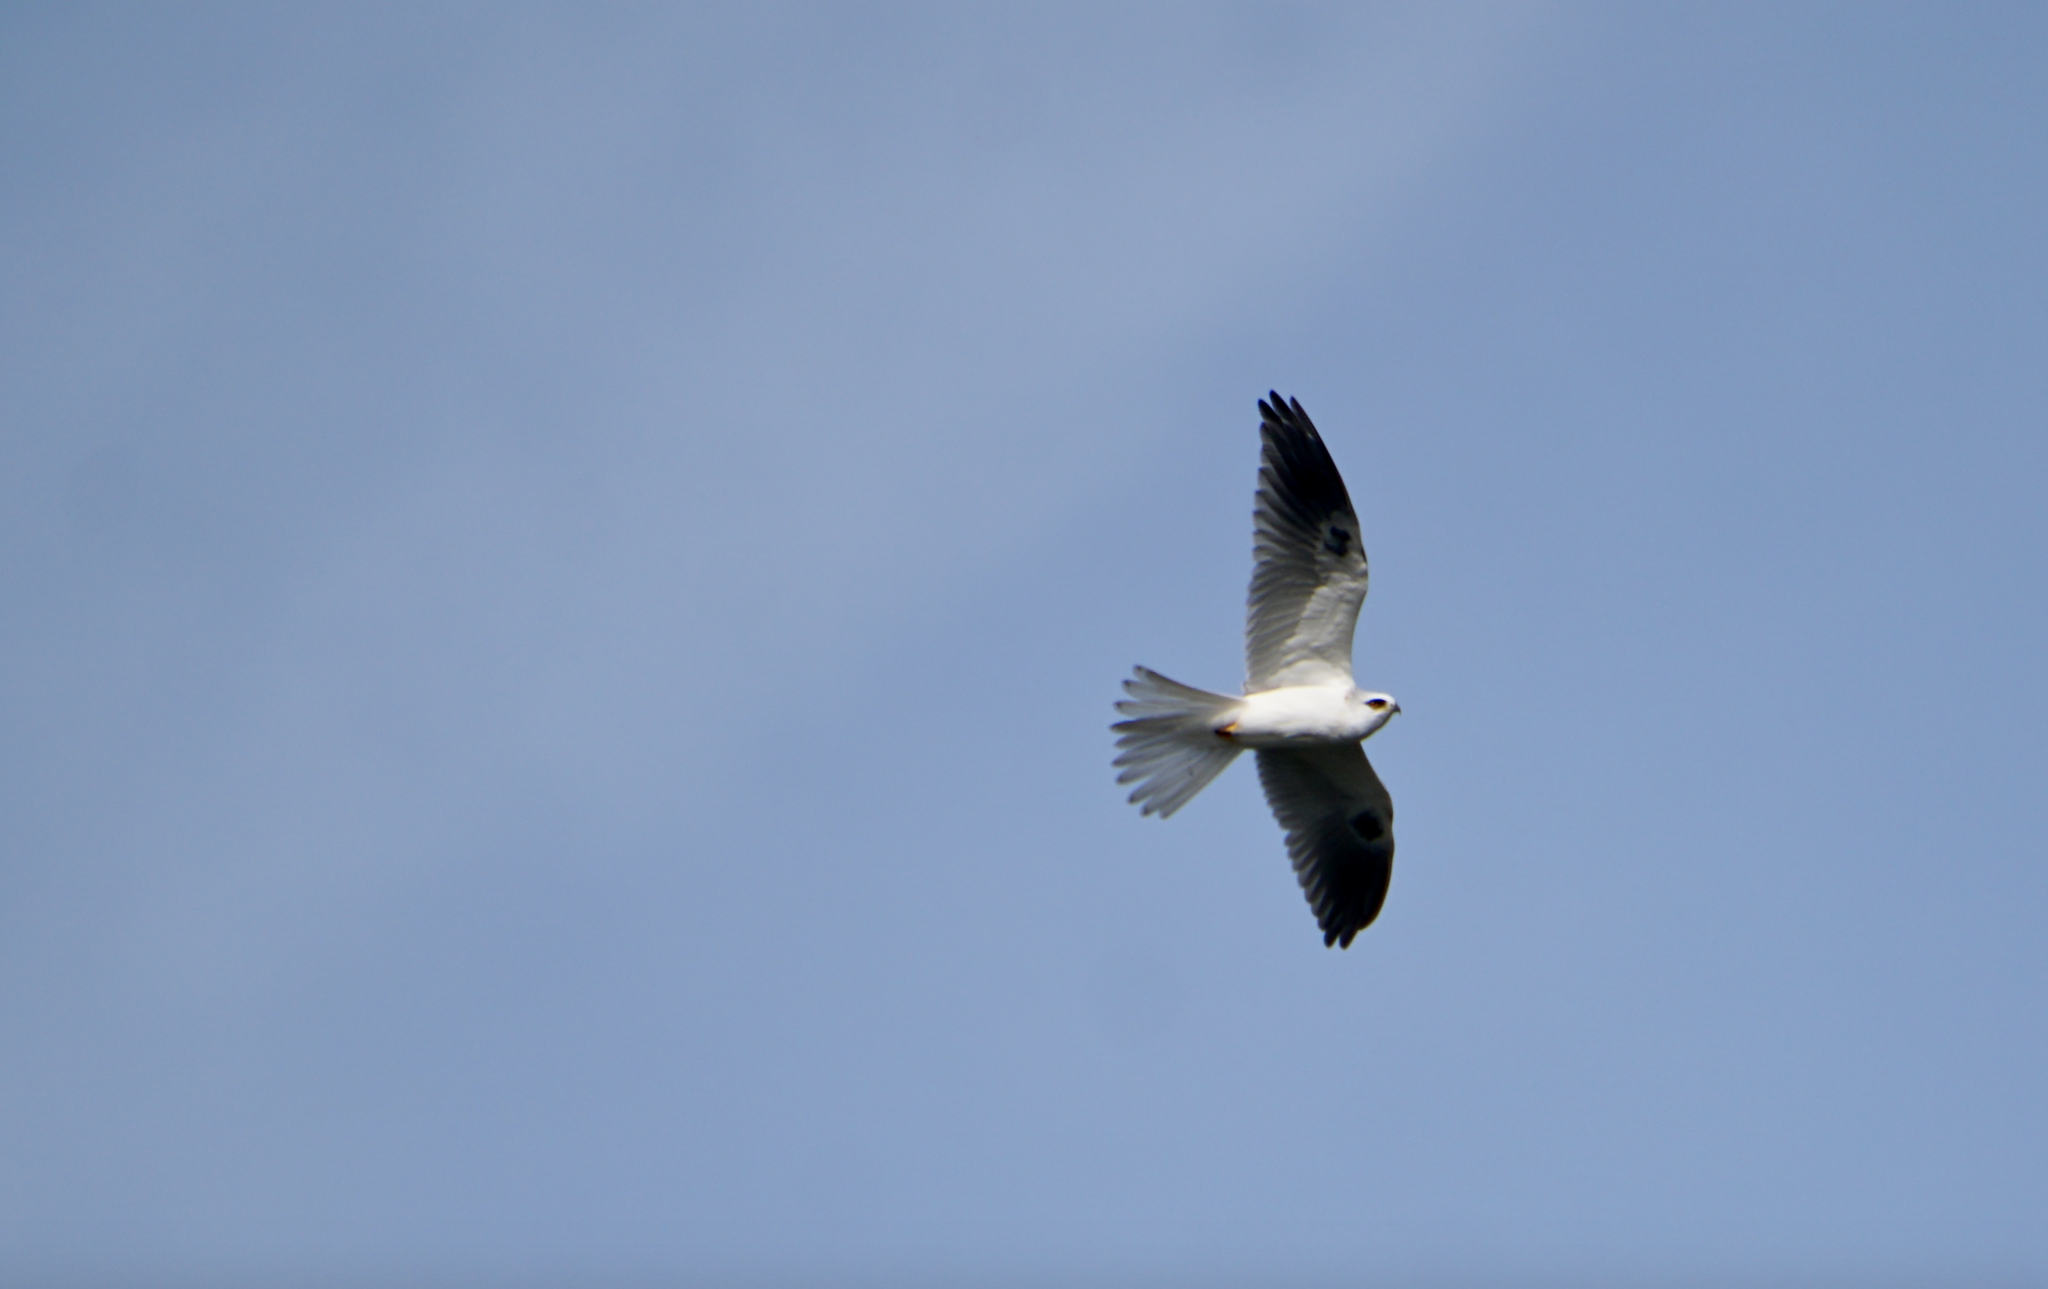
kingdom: Animalia
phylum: Chordata
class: Aves
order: Accipitriformes
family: Accipitridae
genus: Elanus
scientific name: Elanus leucurus
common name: White-tailed kite
